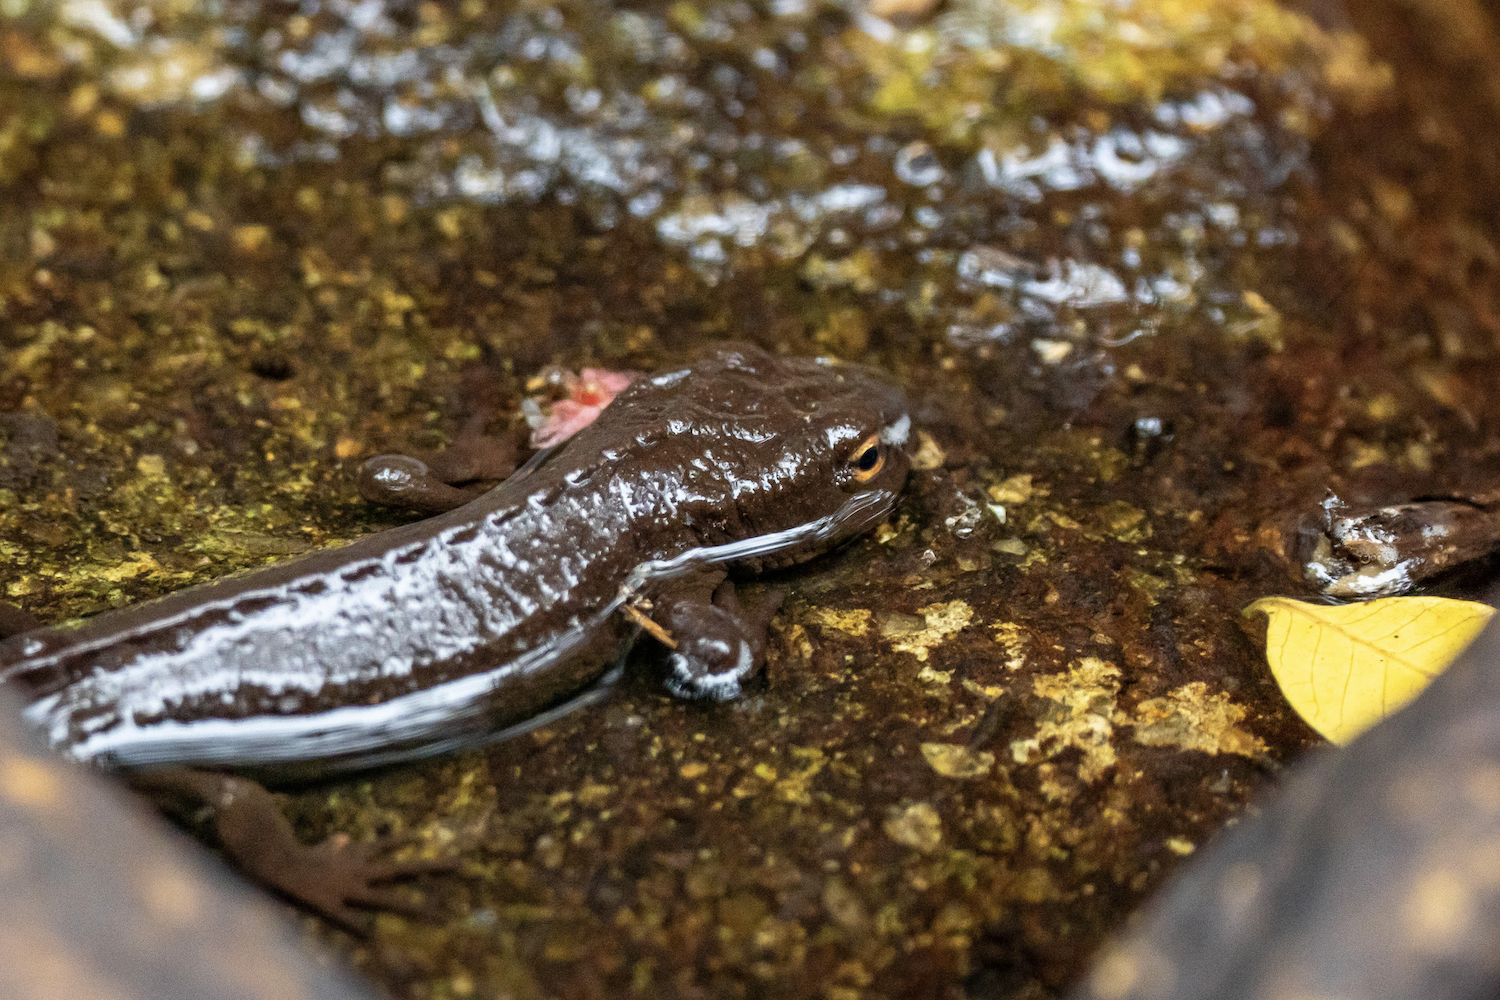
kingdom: Animalia
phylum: Chordata
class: Amphibia
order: Caudata
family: Salamandridae
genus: Paramesotriton
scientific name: Paramesotriton hongkongensis
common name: Hong kong warty newt
